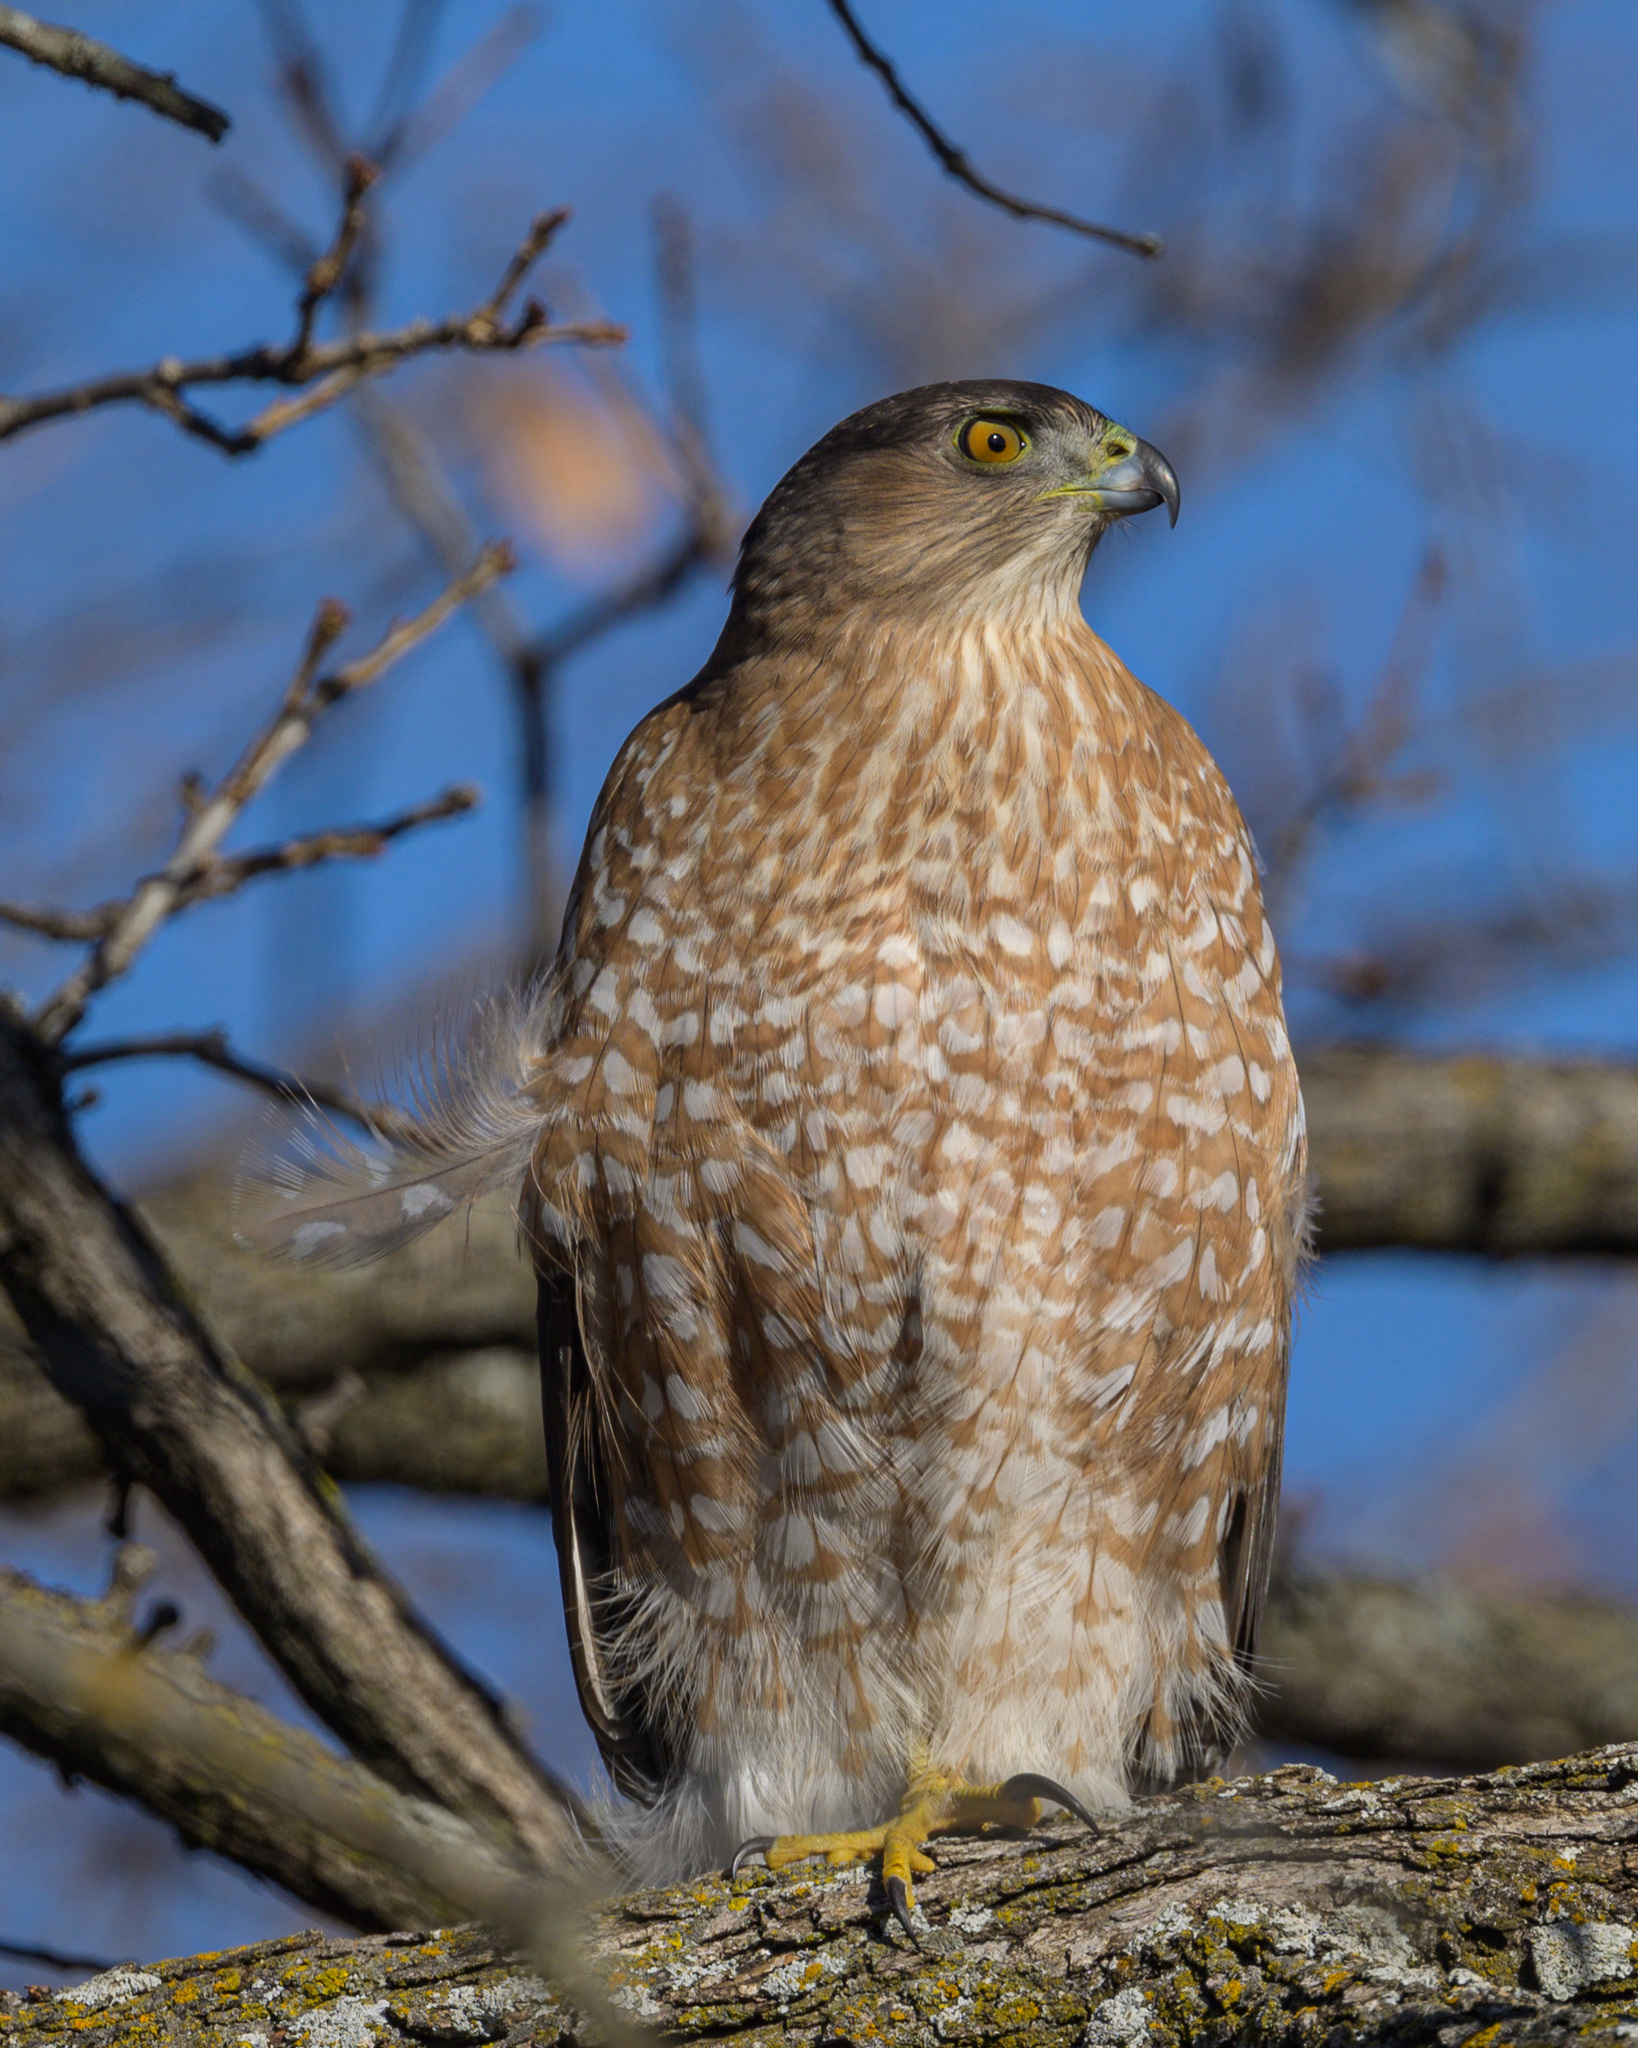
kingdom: Animalia
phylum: Chordata
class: Aves
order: Accipitriformes
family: Accipitridae
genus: Accipiter
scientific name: Accipiter cooperii
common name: Cooper's hawk
